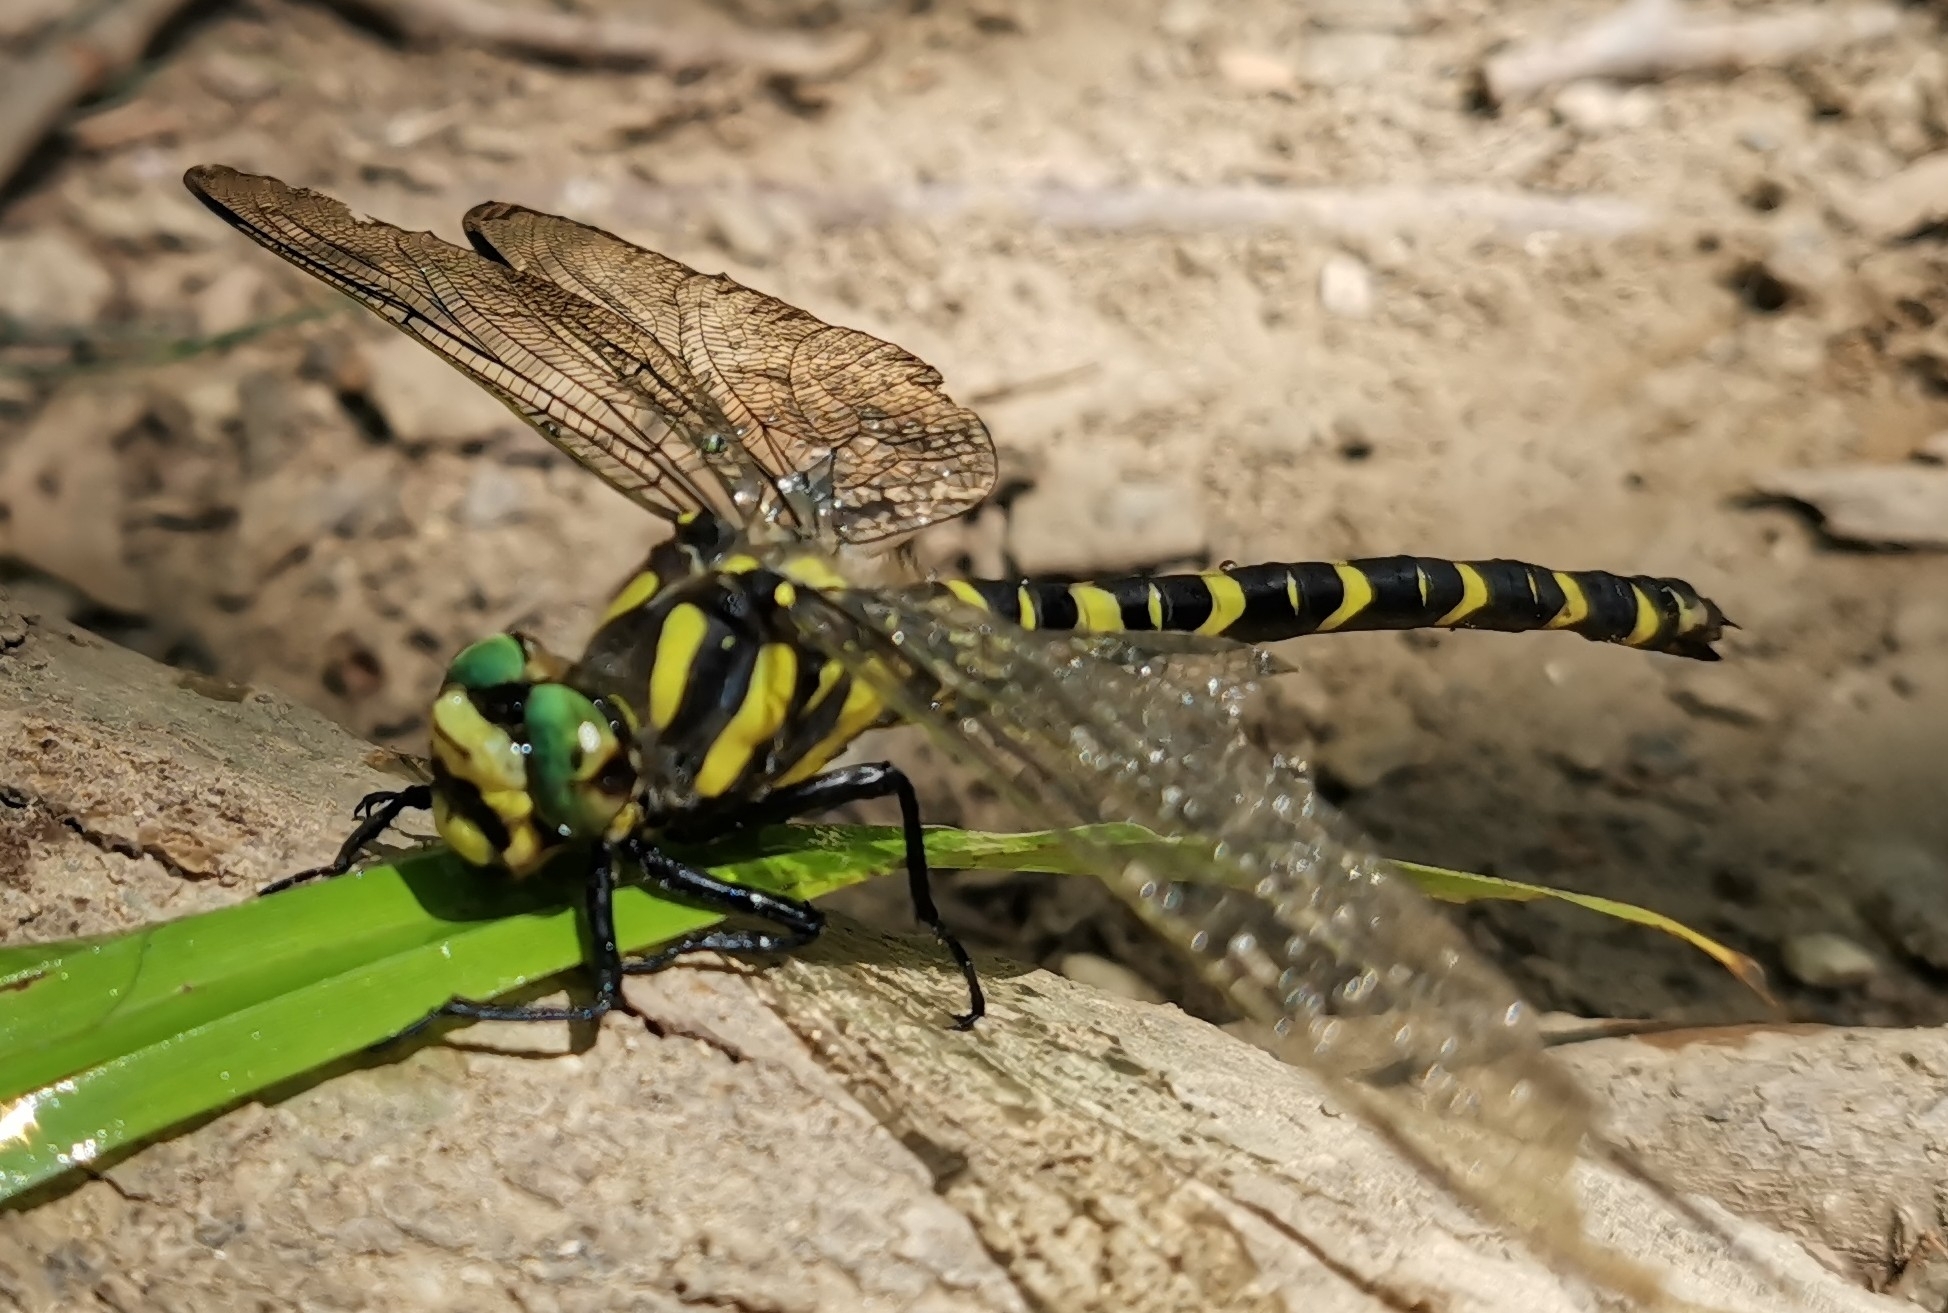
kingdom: Animalia
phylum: Arthropoda
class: Insecta
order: Odonata
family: Cordulegastridae
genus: Cordulegaster
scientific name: Cordulegaster boltonii
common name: Golden-ringed dragonfly
